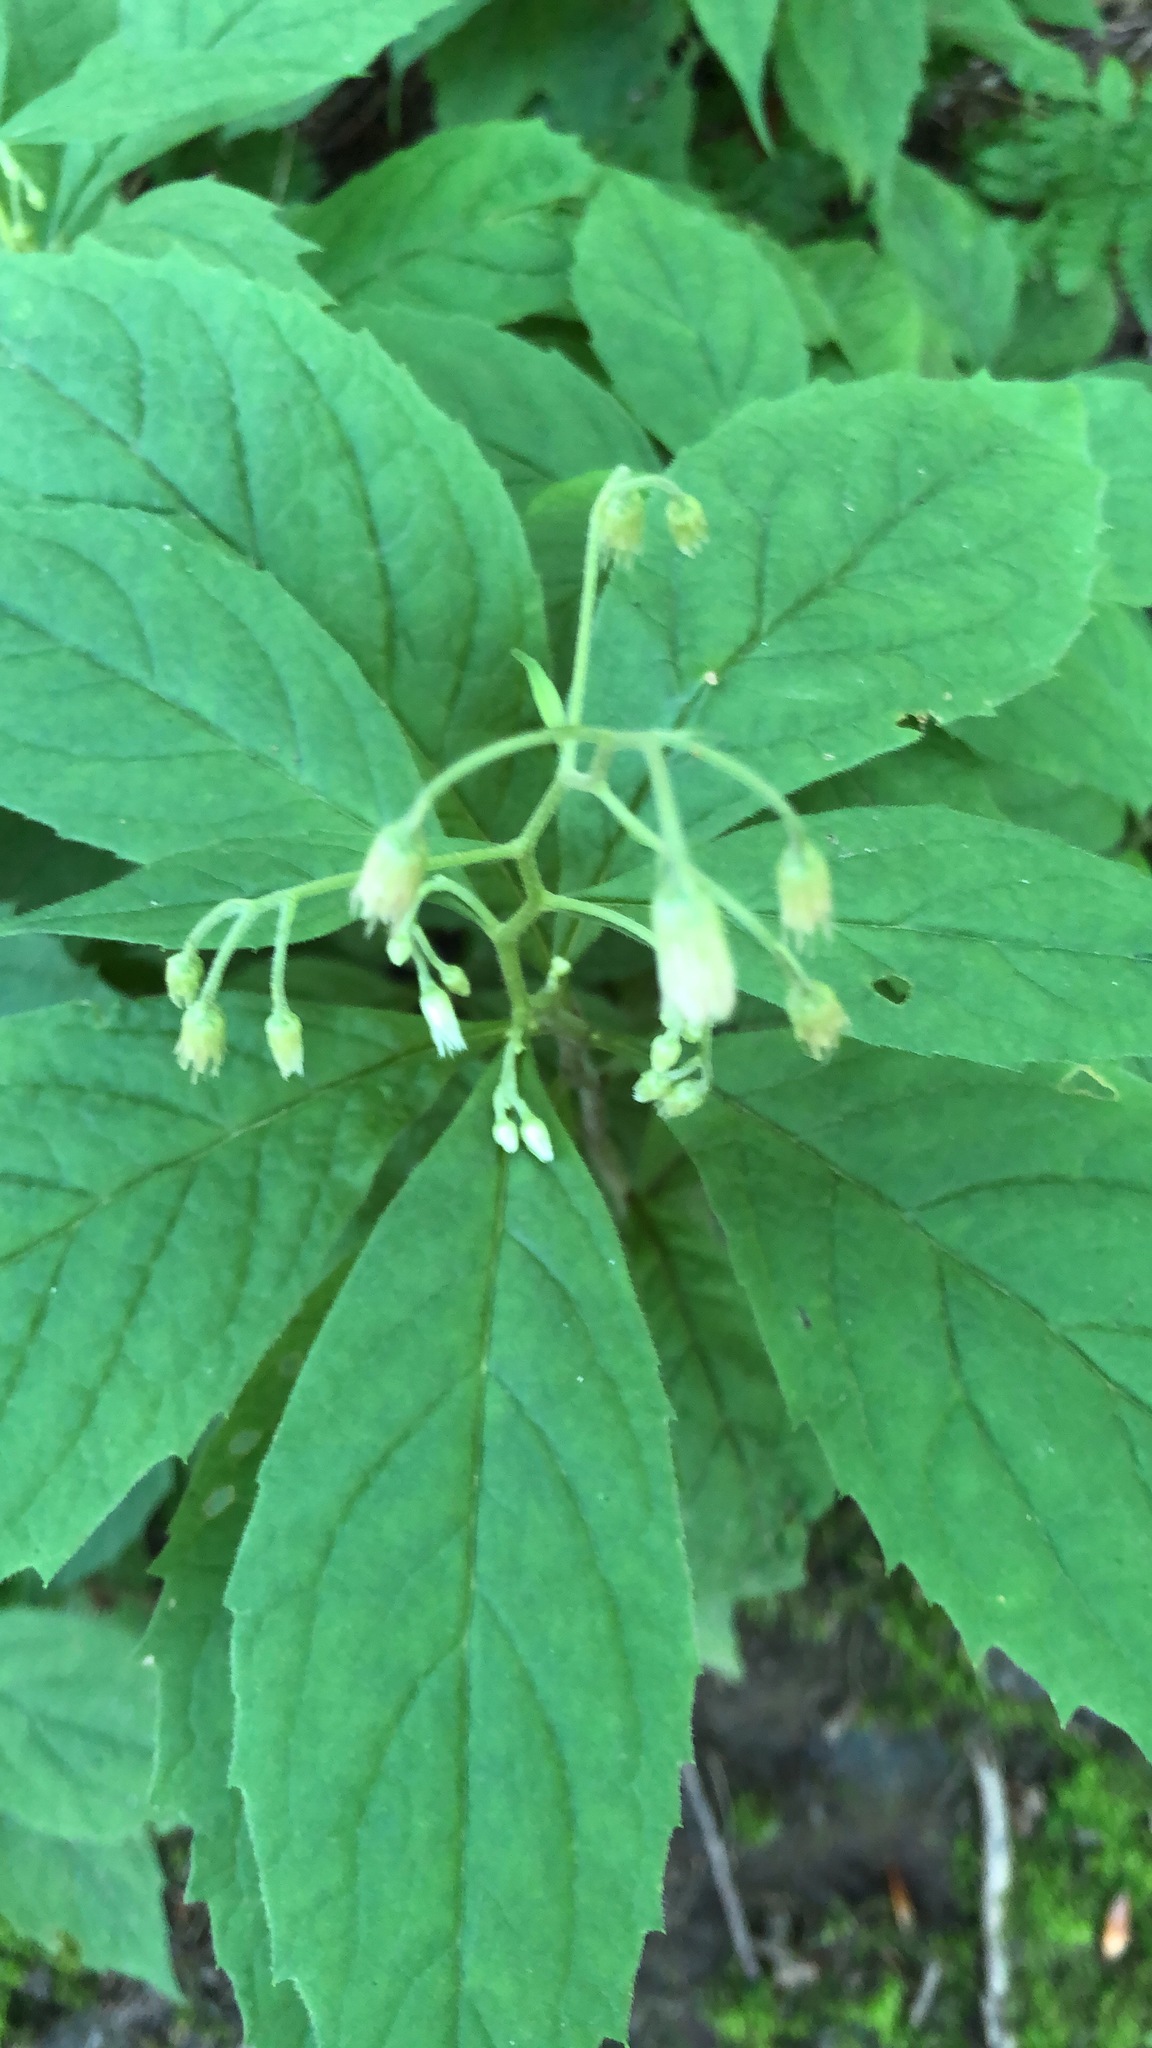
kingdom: Plantae
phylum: Tracheophyta
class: Magnoliopsida
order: Asterales
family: Asteraceae
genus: Oclemena
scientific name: Oclemena acuminata
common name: Mountain aster
